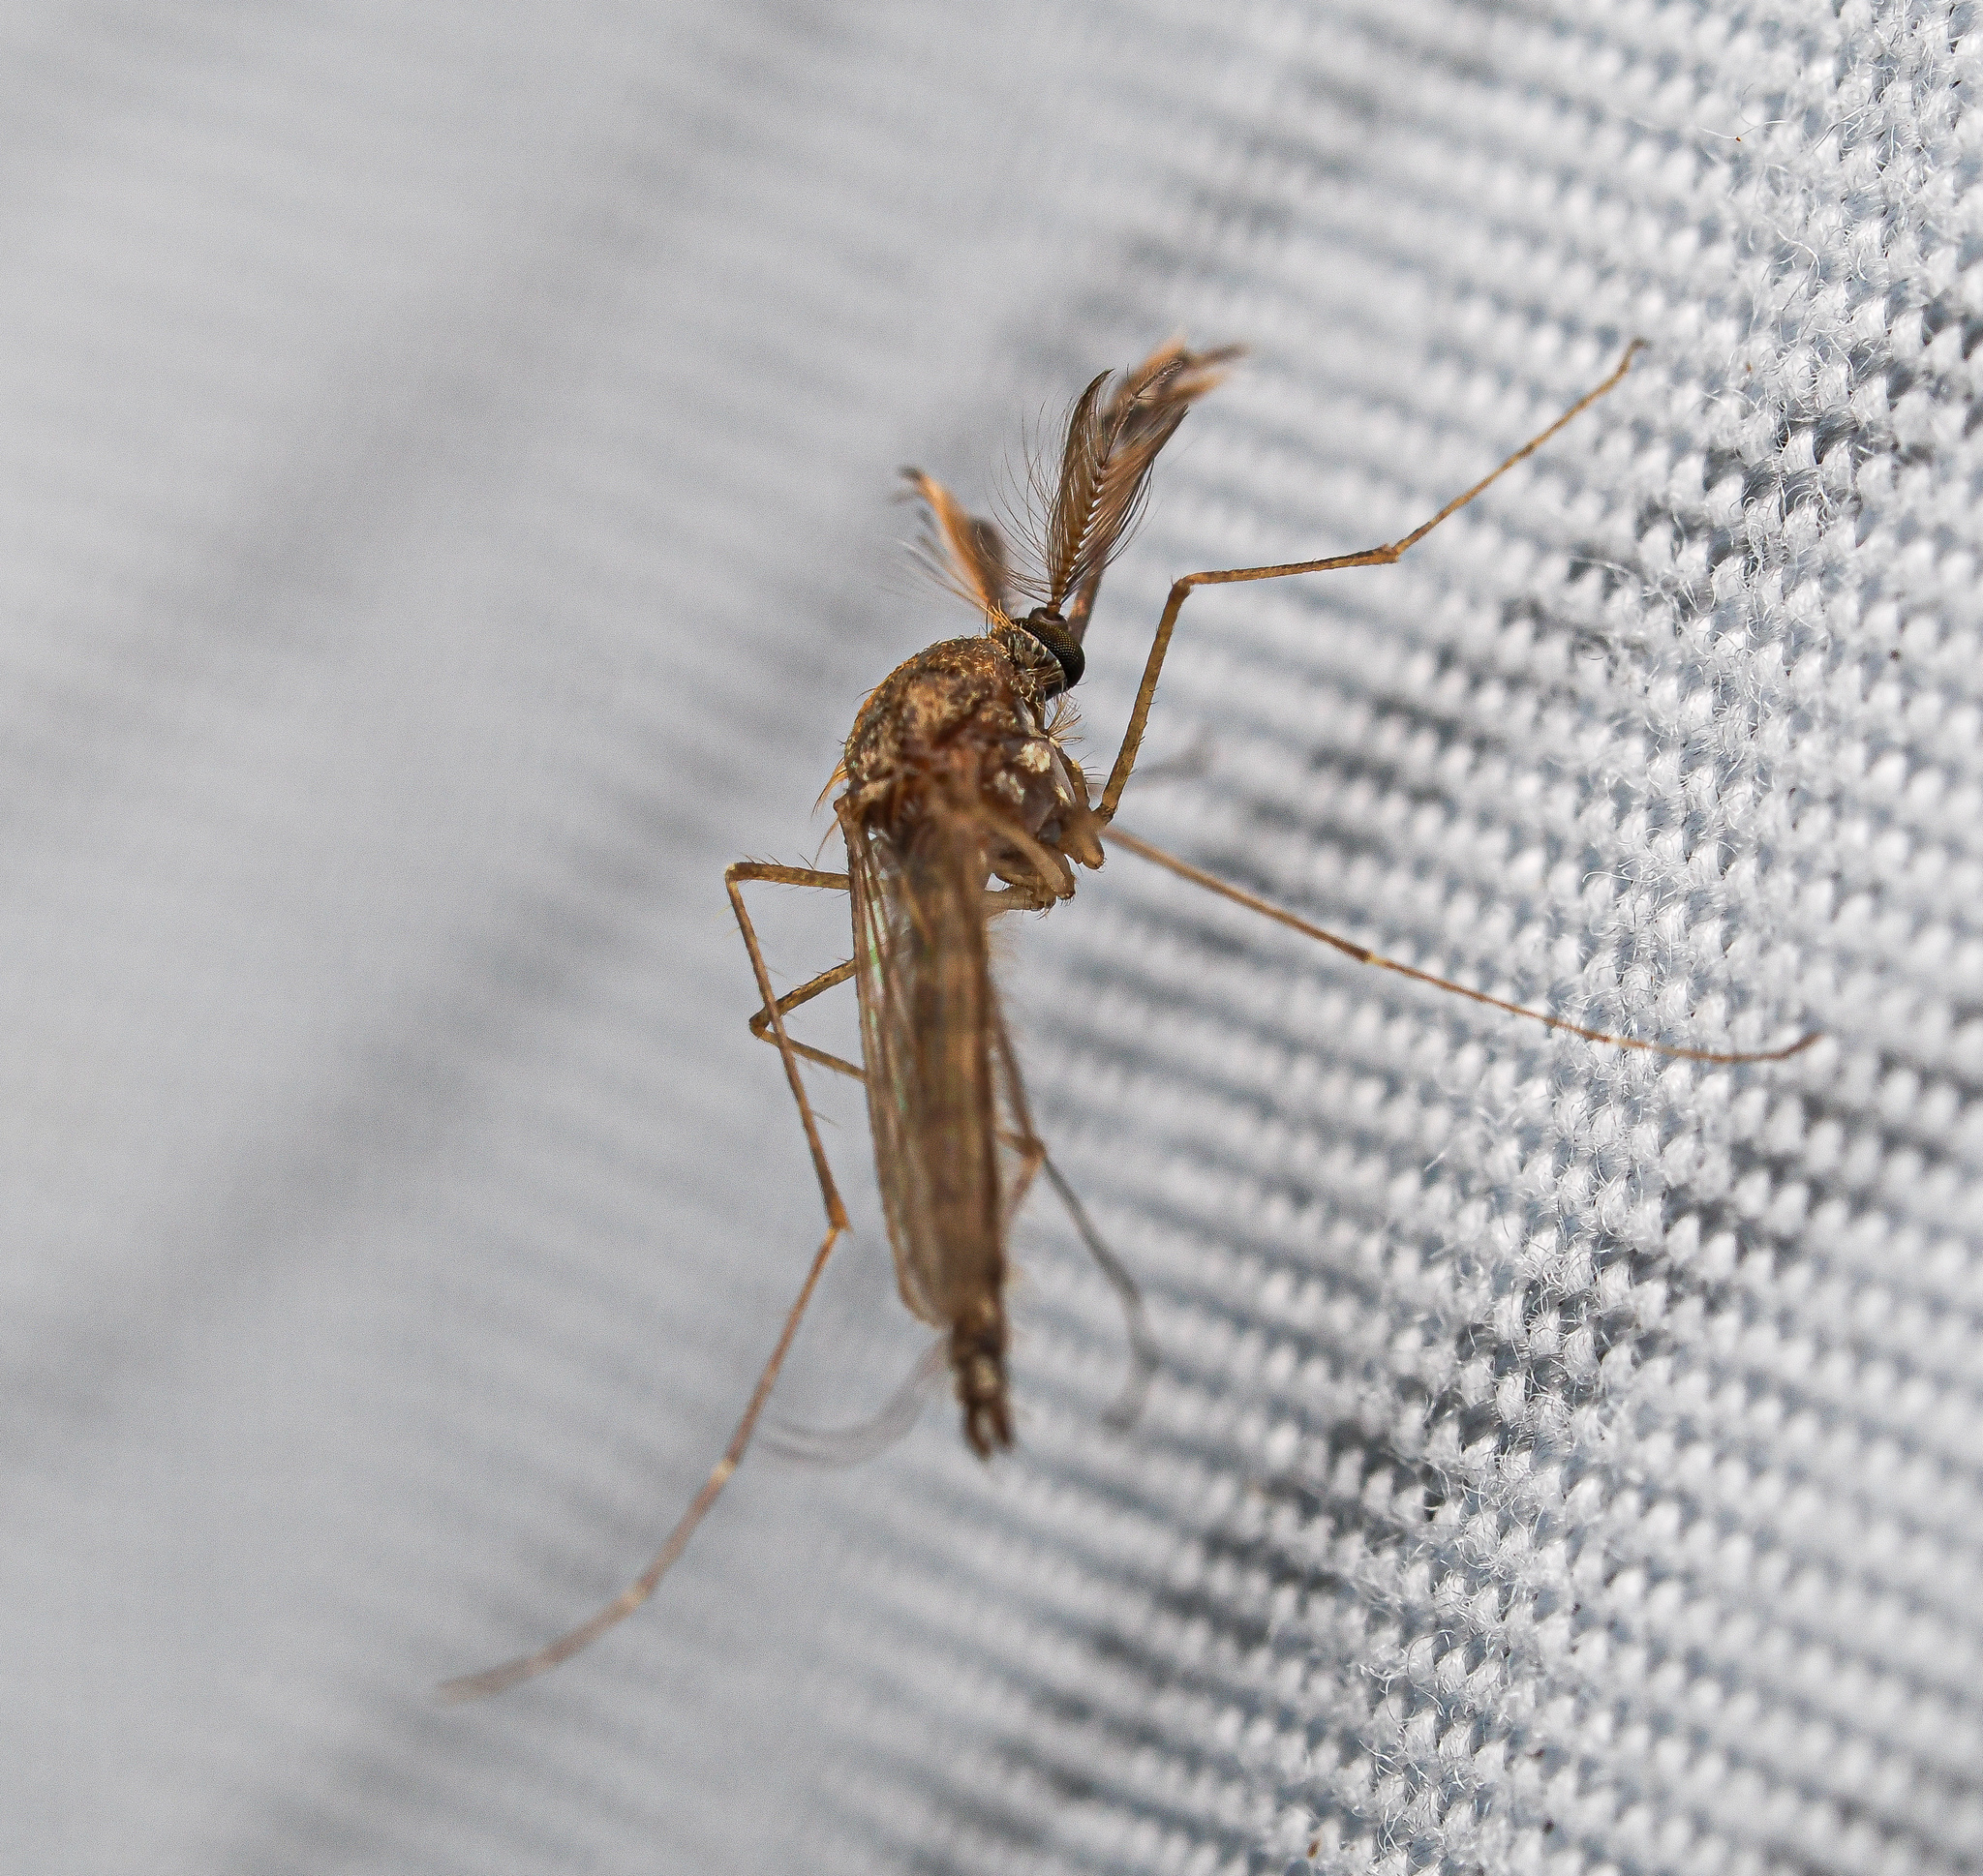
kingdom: Animalia
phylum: Arthropoda
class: Insecta
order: Diptera
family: Culicidae
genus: Aedes
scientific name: Aedes vexans
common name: Inland floodwater mosquito
